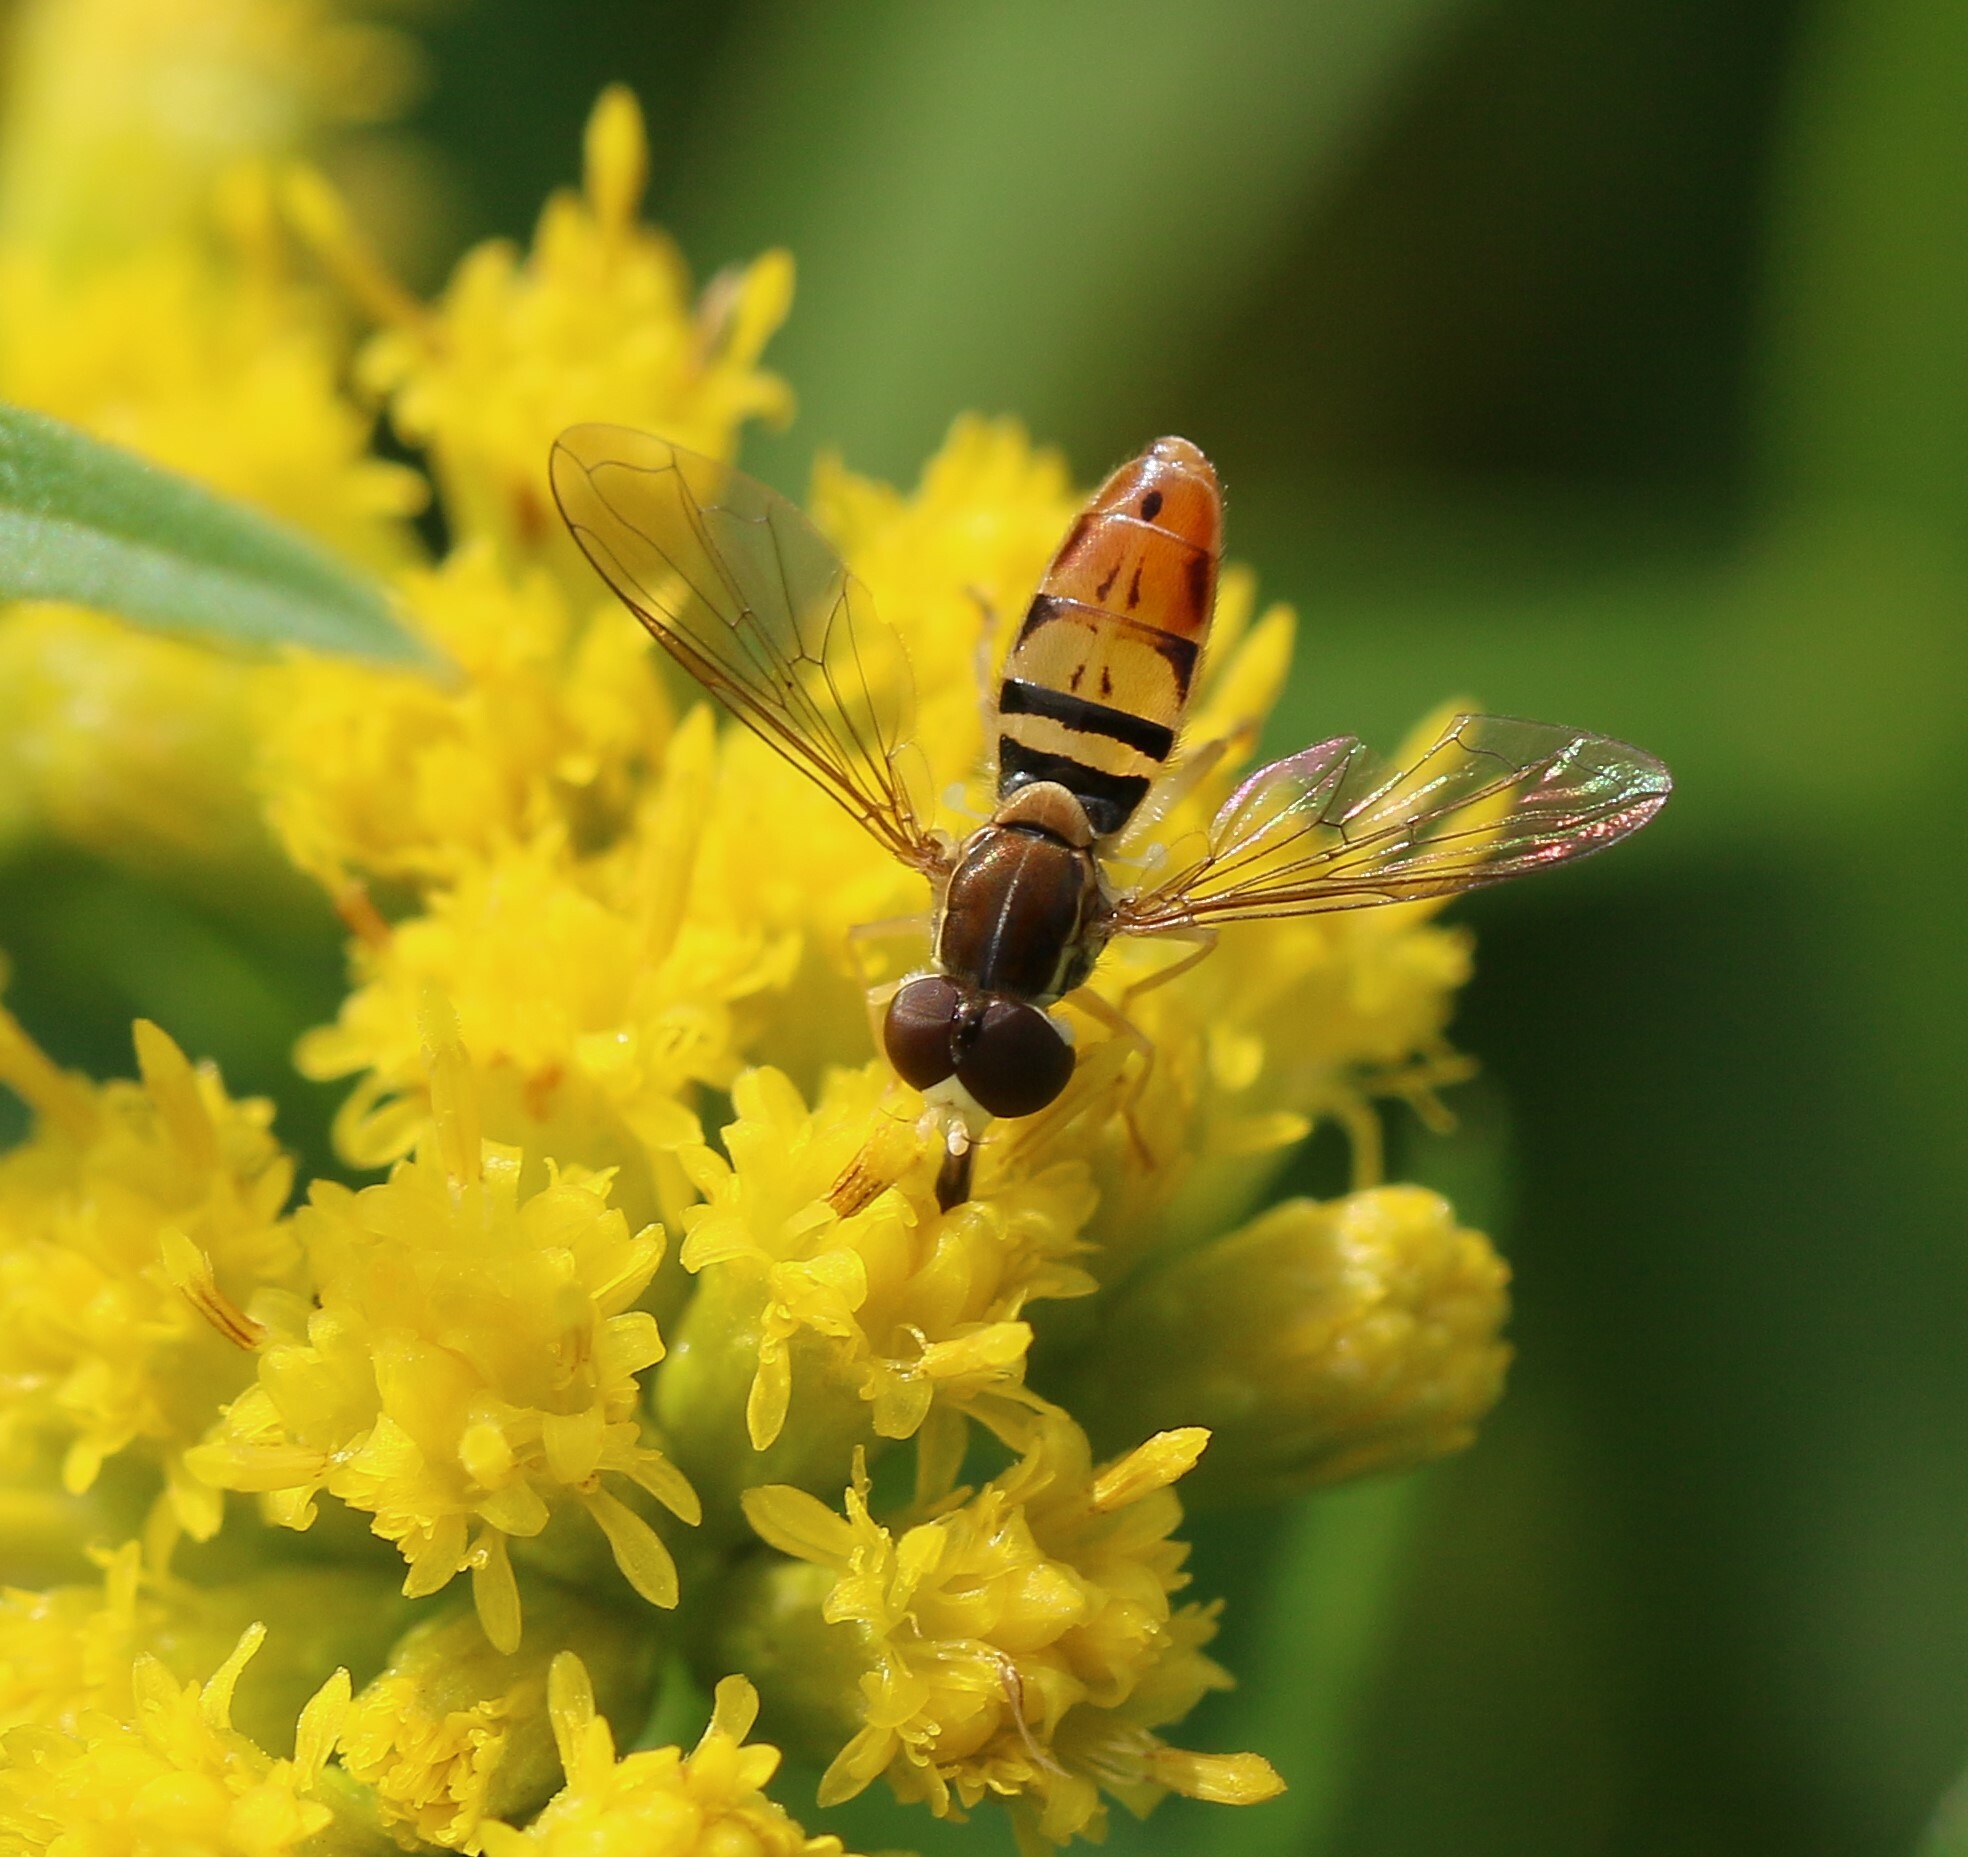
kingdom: Animalia
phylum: Arthropoda
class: Insecta
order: Diptera
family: Syrphidae
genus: Toxomerus
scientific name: Toxomerus marginatus
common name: Syrphid fly
